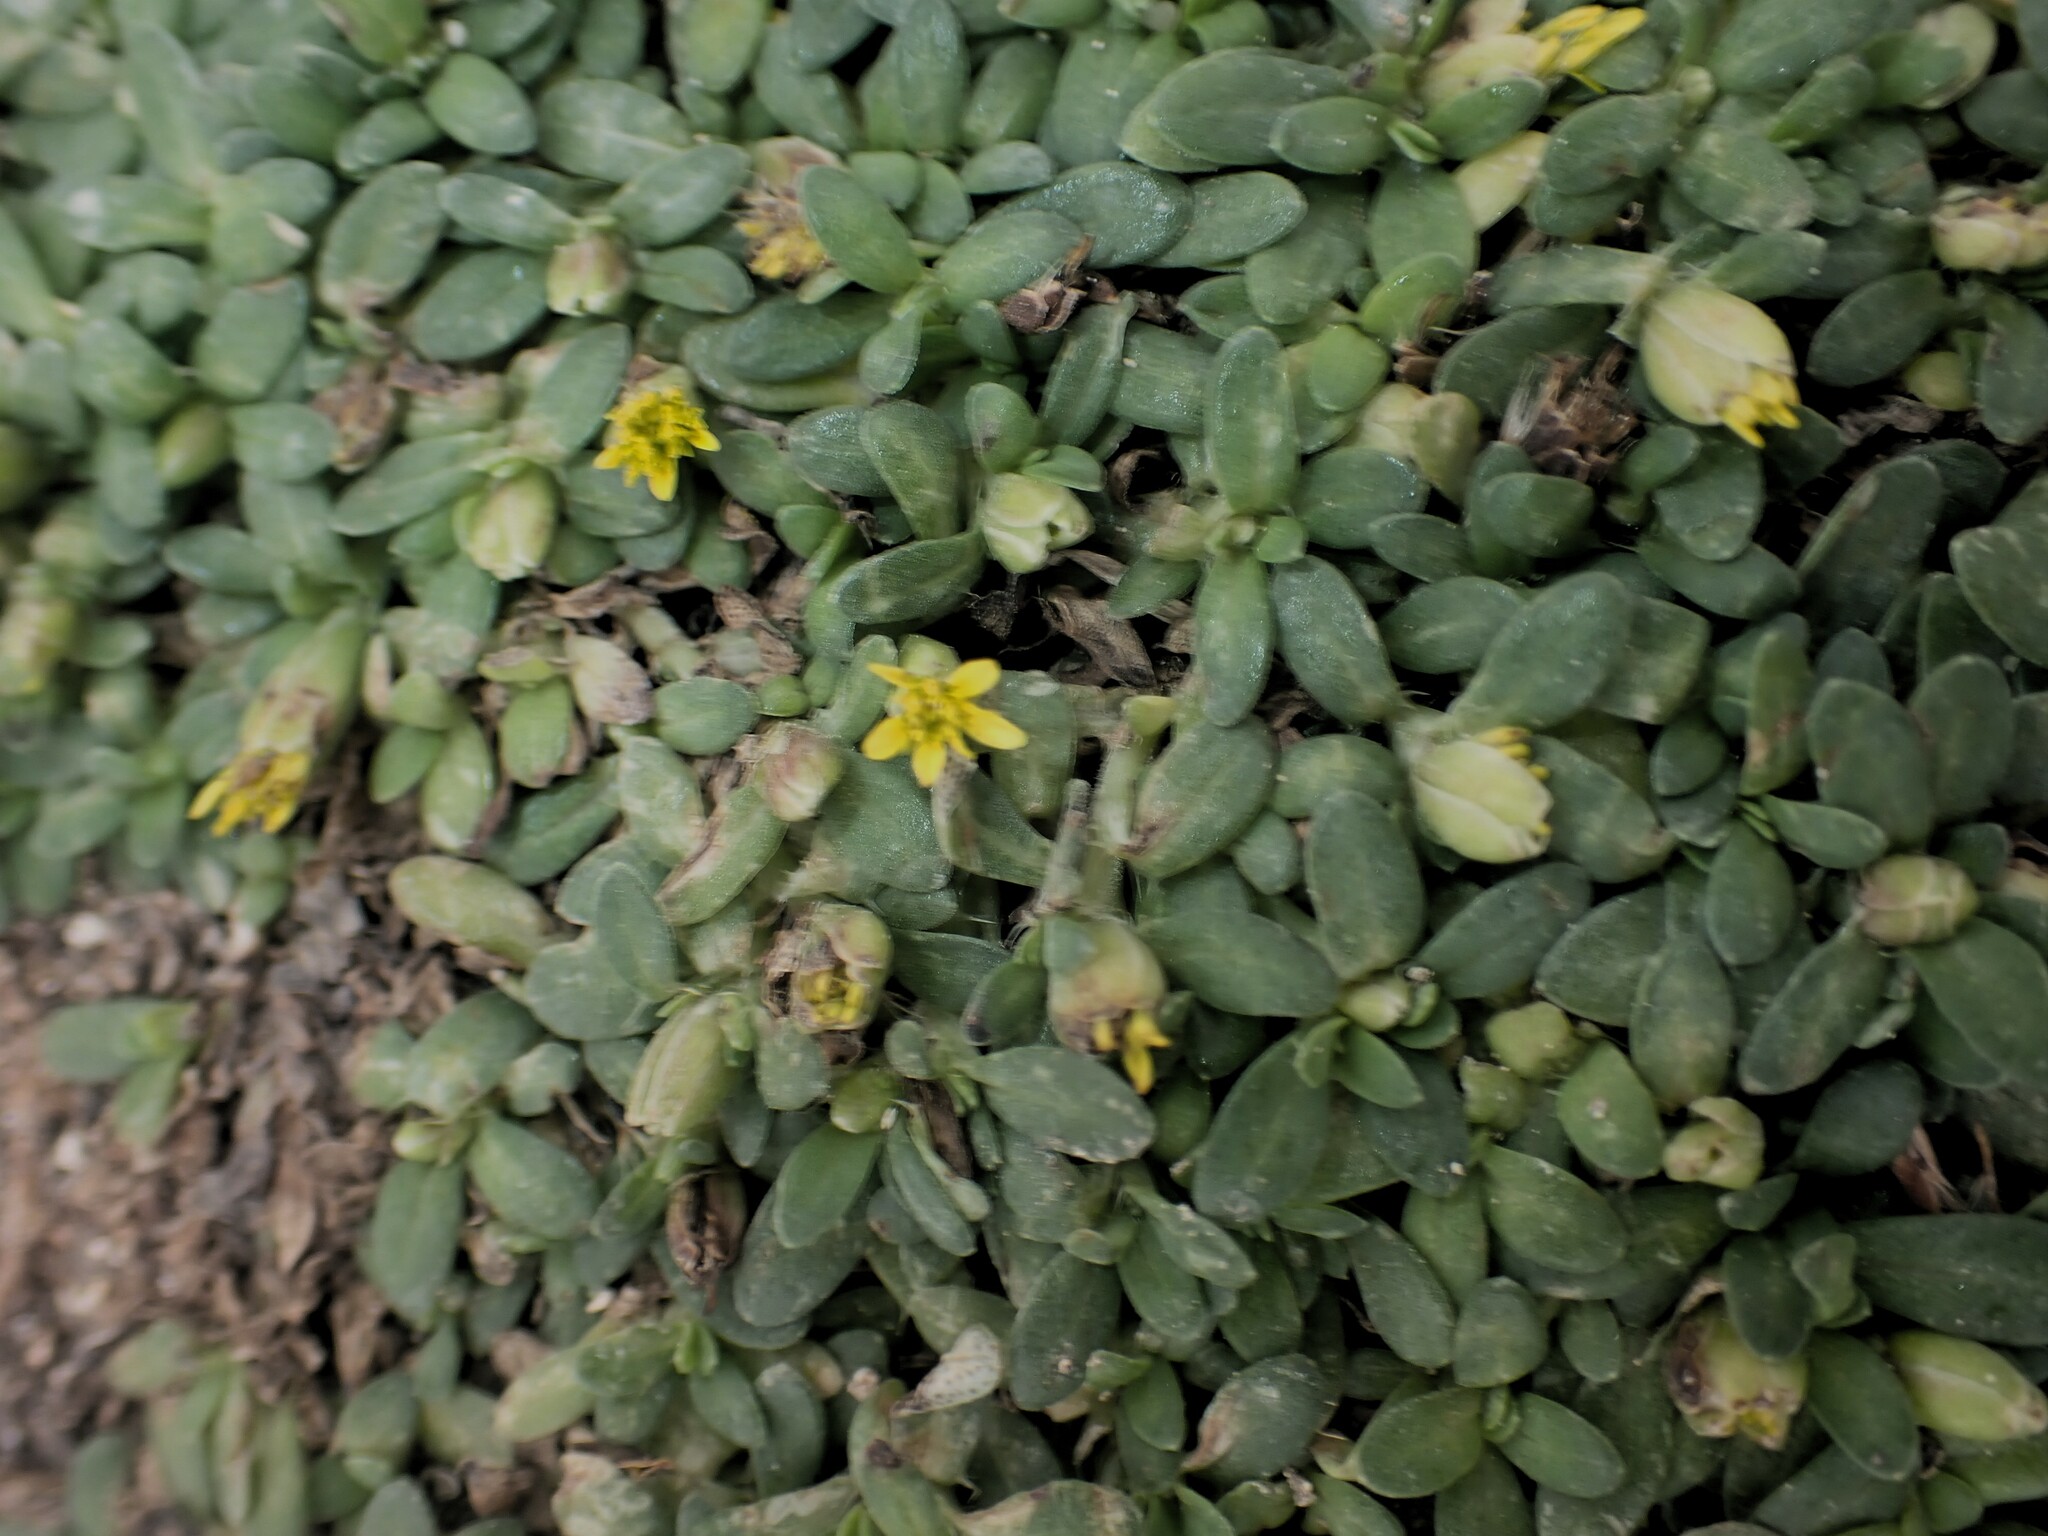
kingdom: Plantae
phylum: Tracheophyta
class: Magnoliopsida
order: Asterales
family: Asteraceae
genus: Pectis
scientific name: Pectis humifusa
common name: Yerba de san juan
